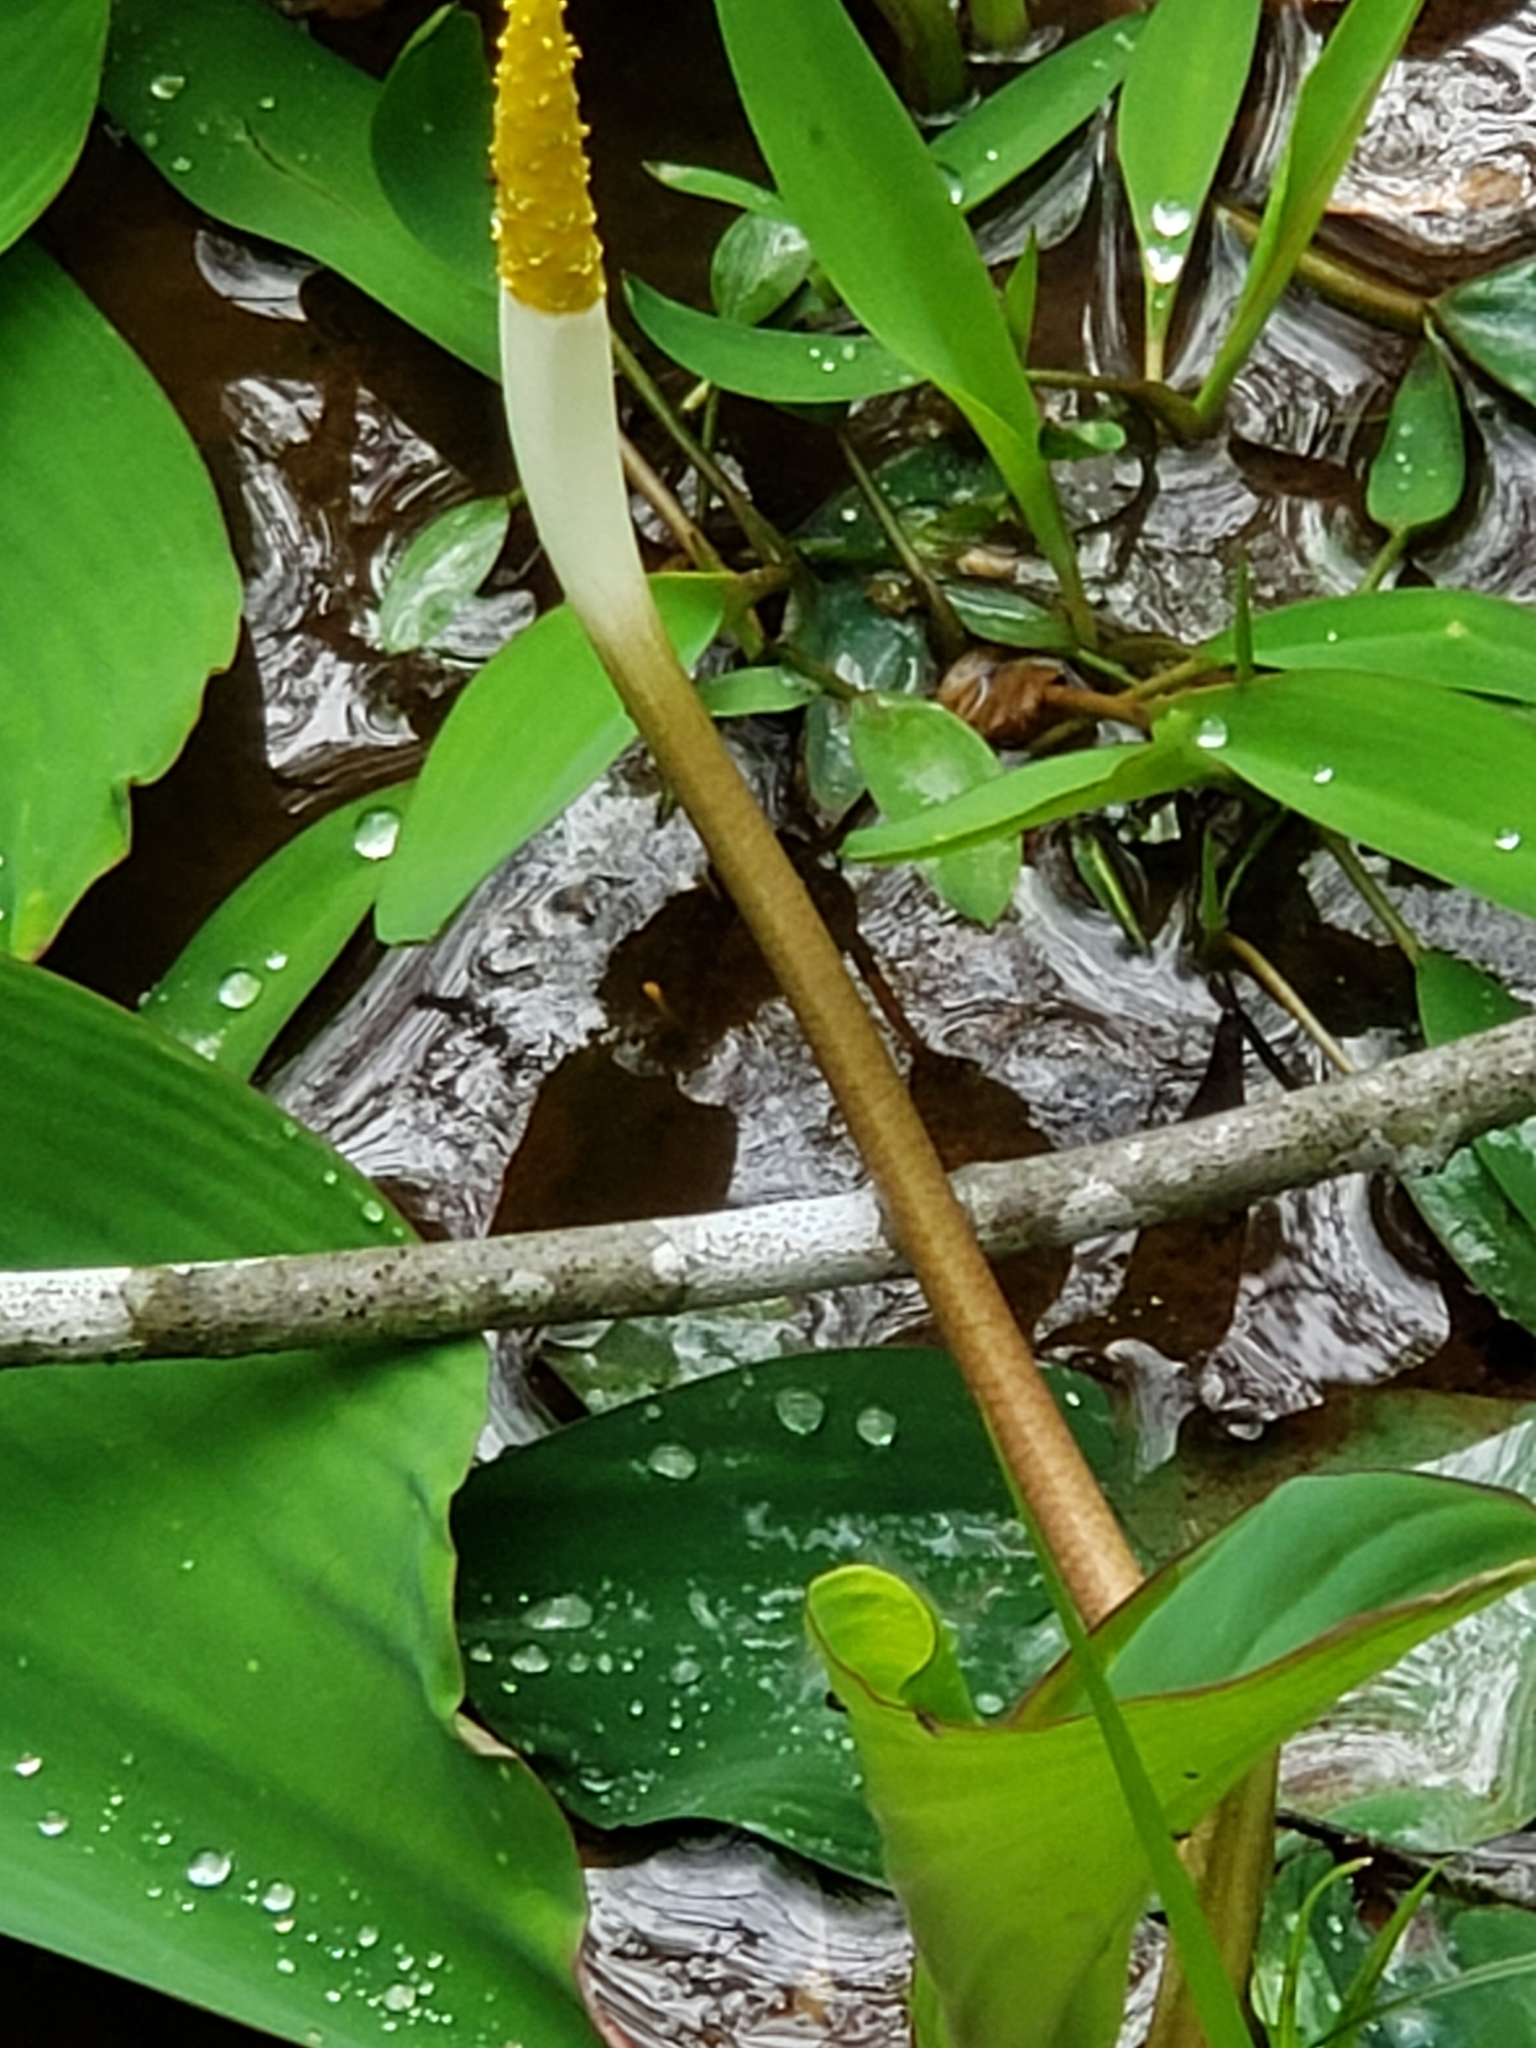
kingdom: Plantae
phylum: Tracheophyta
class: Liliopsida
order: Alismatales
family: Araceae
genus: Orontium
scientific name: Orontium aquaticum
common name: Golden-club
